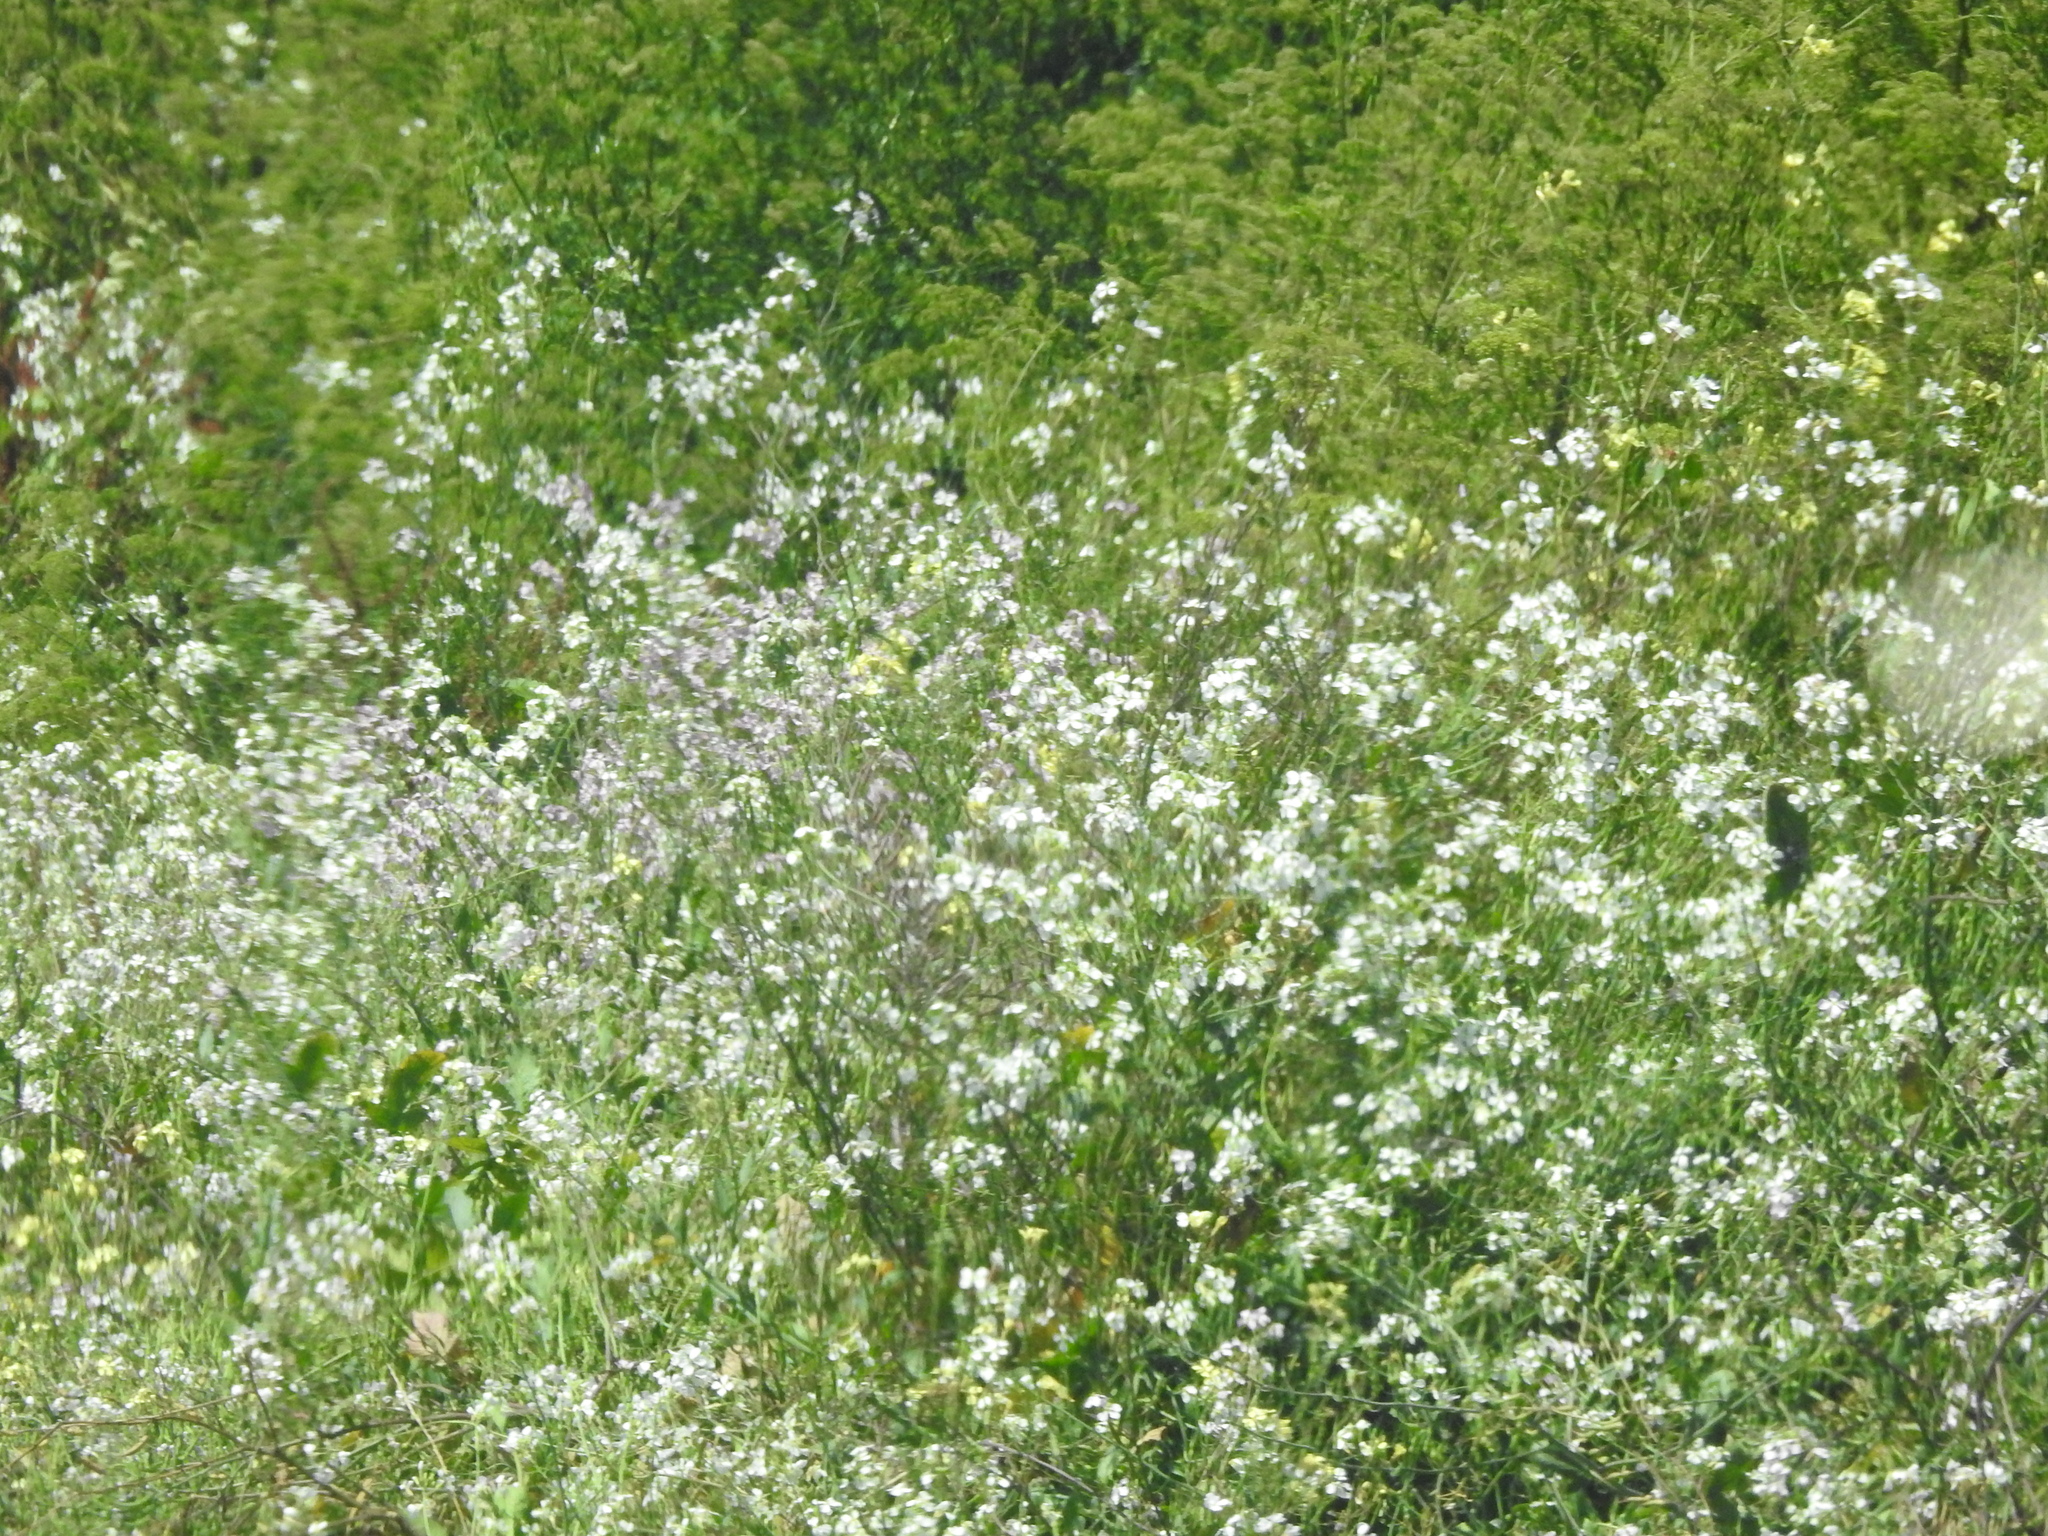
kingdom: Plantae
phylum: Tracheophyta
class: Magnoliopsida
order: Brassicales
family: Brassicaceae
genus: Raphanus
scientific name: Raphanus sativus
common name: Cultivated radish
